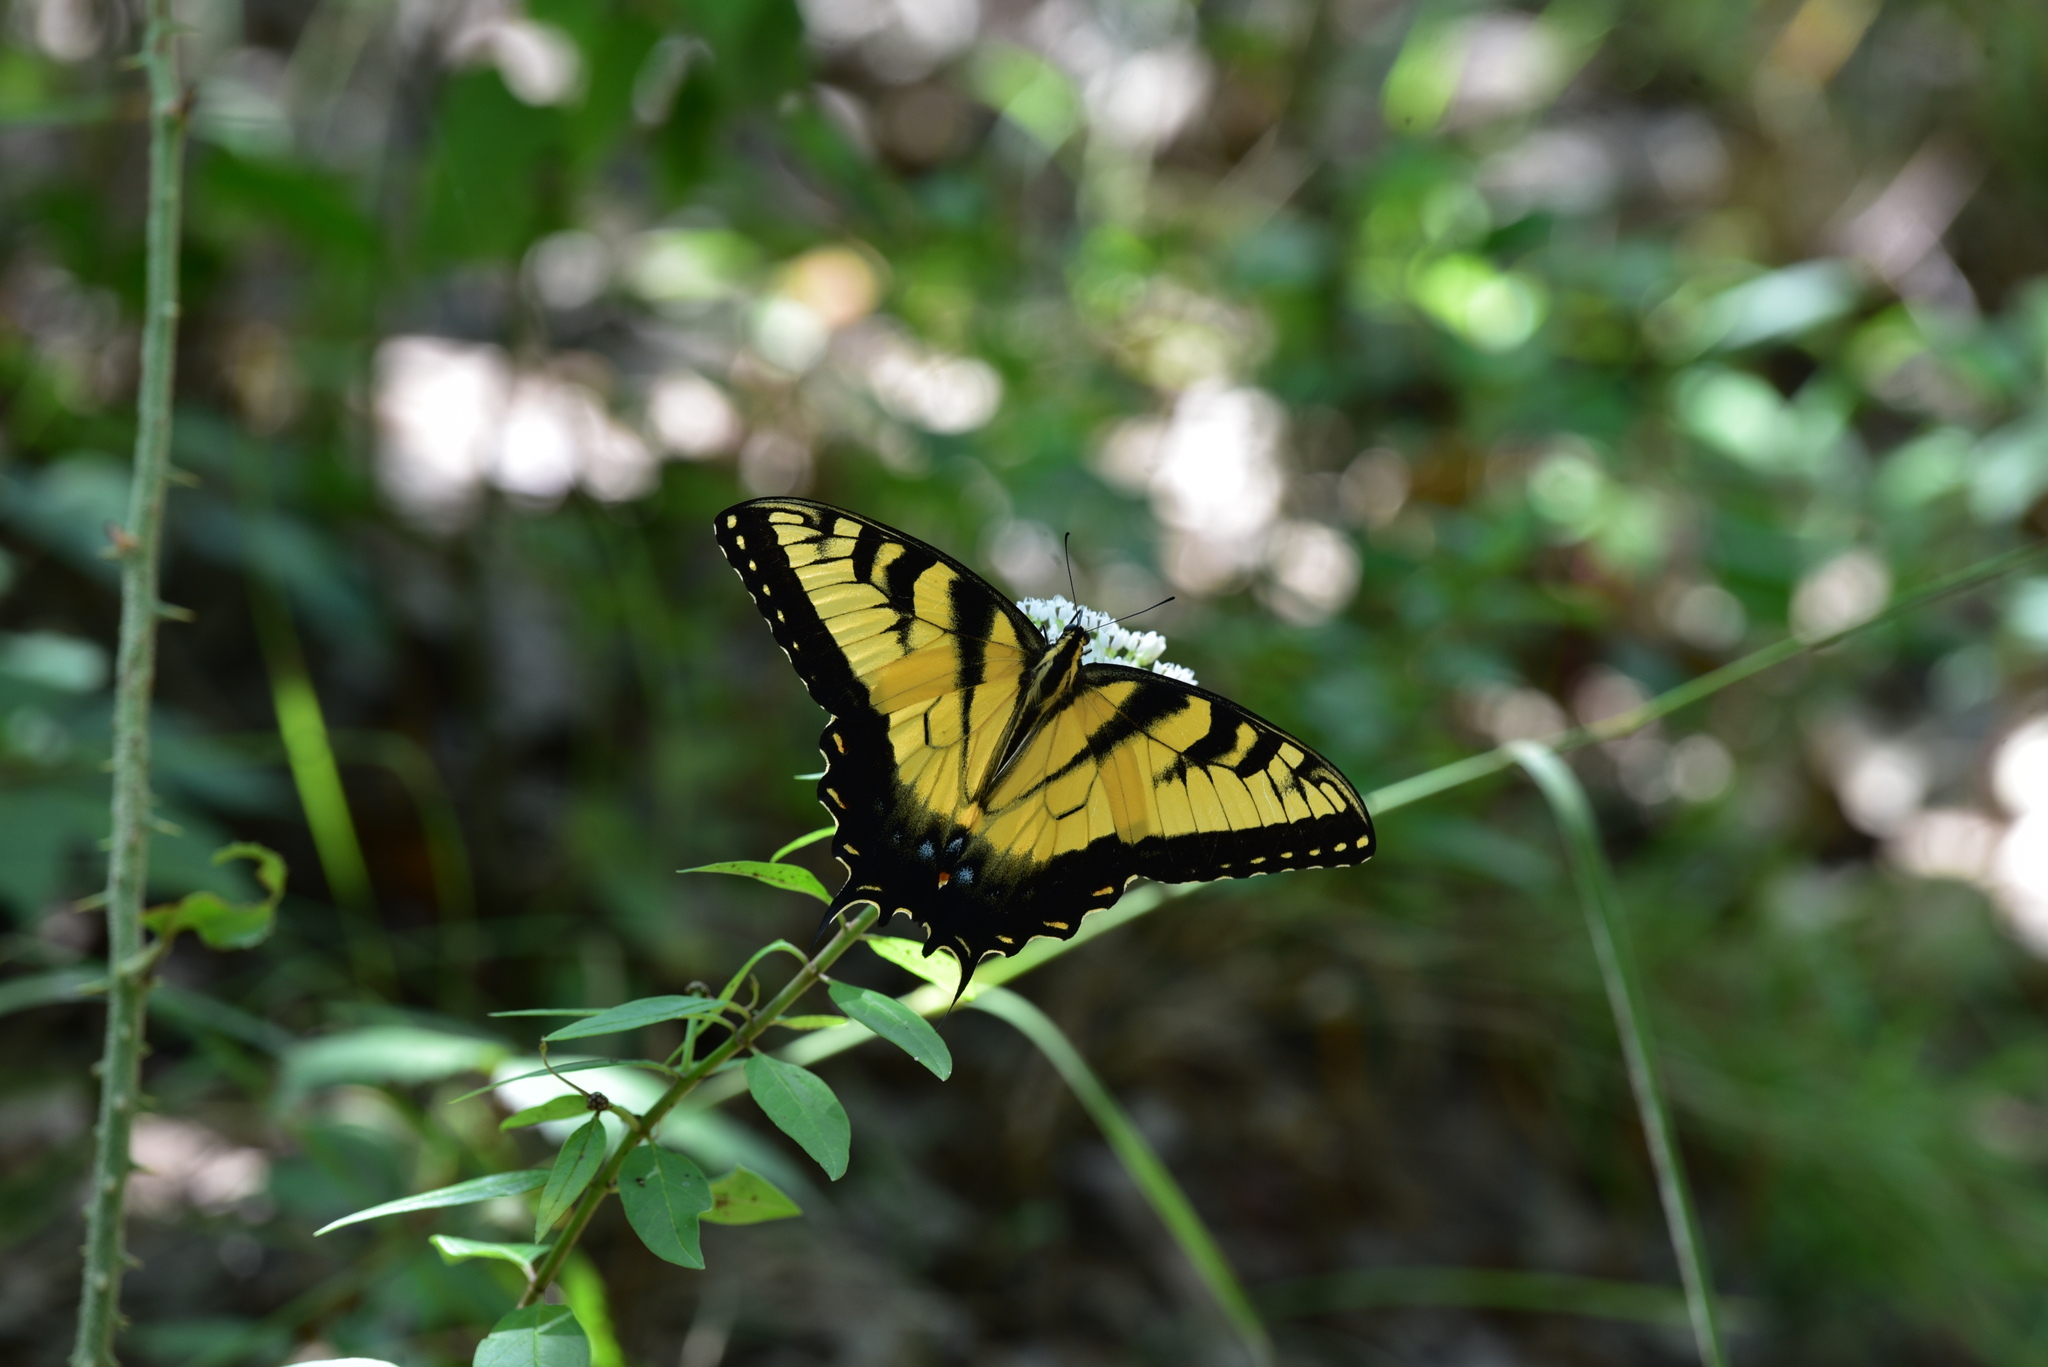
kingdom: Animalia
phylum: Arthropoda
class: Insecta
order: Lepidoptera
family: Papilionidae
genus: Papilio
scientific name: Papilio glaucus
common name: Tiger swallowtail
